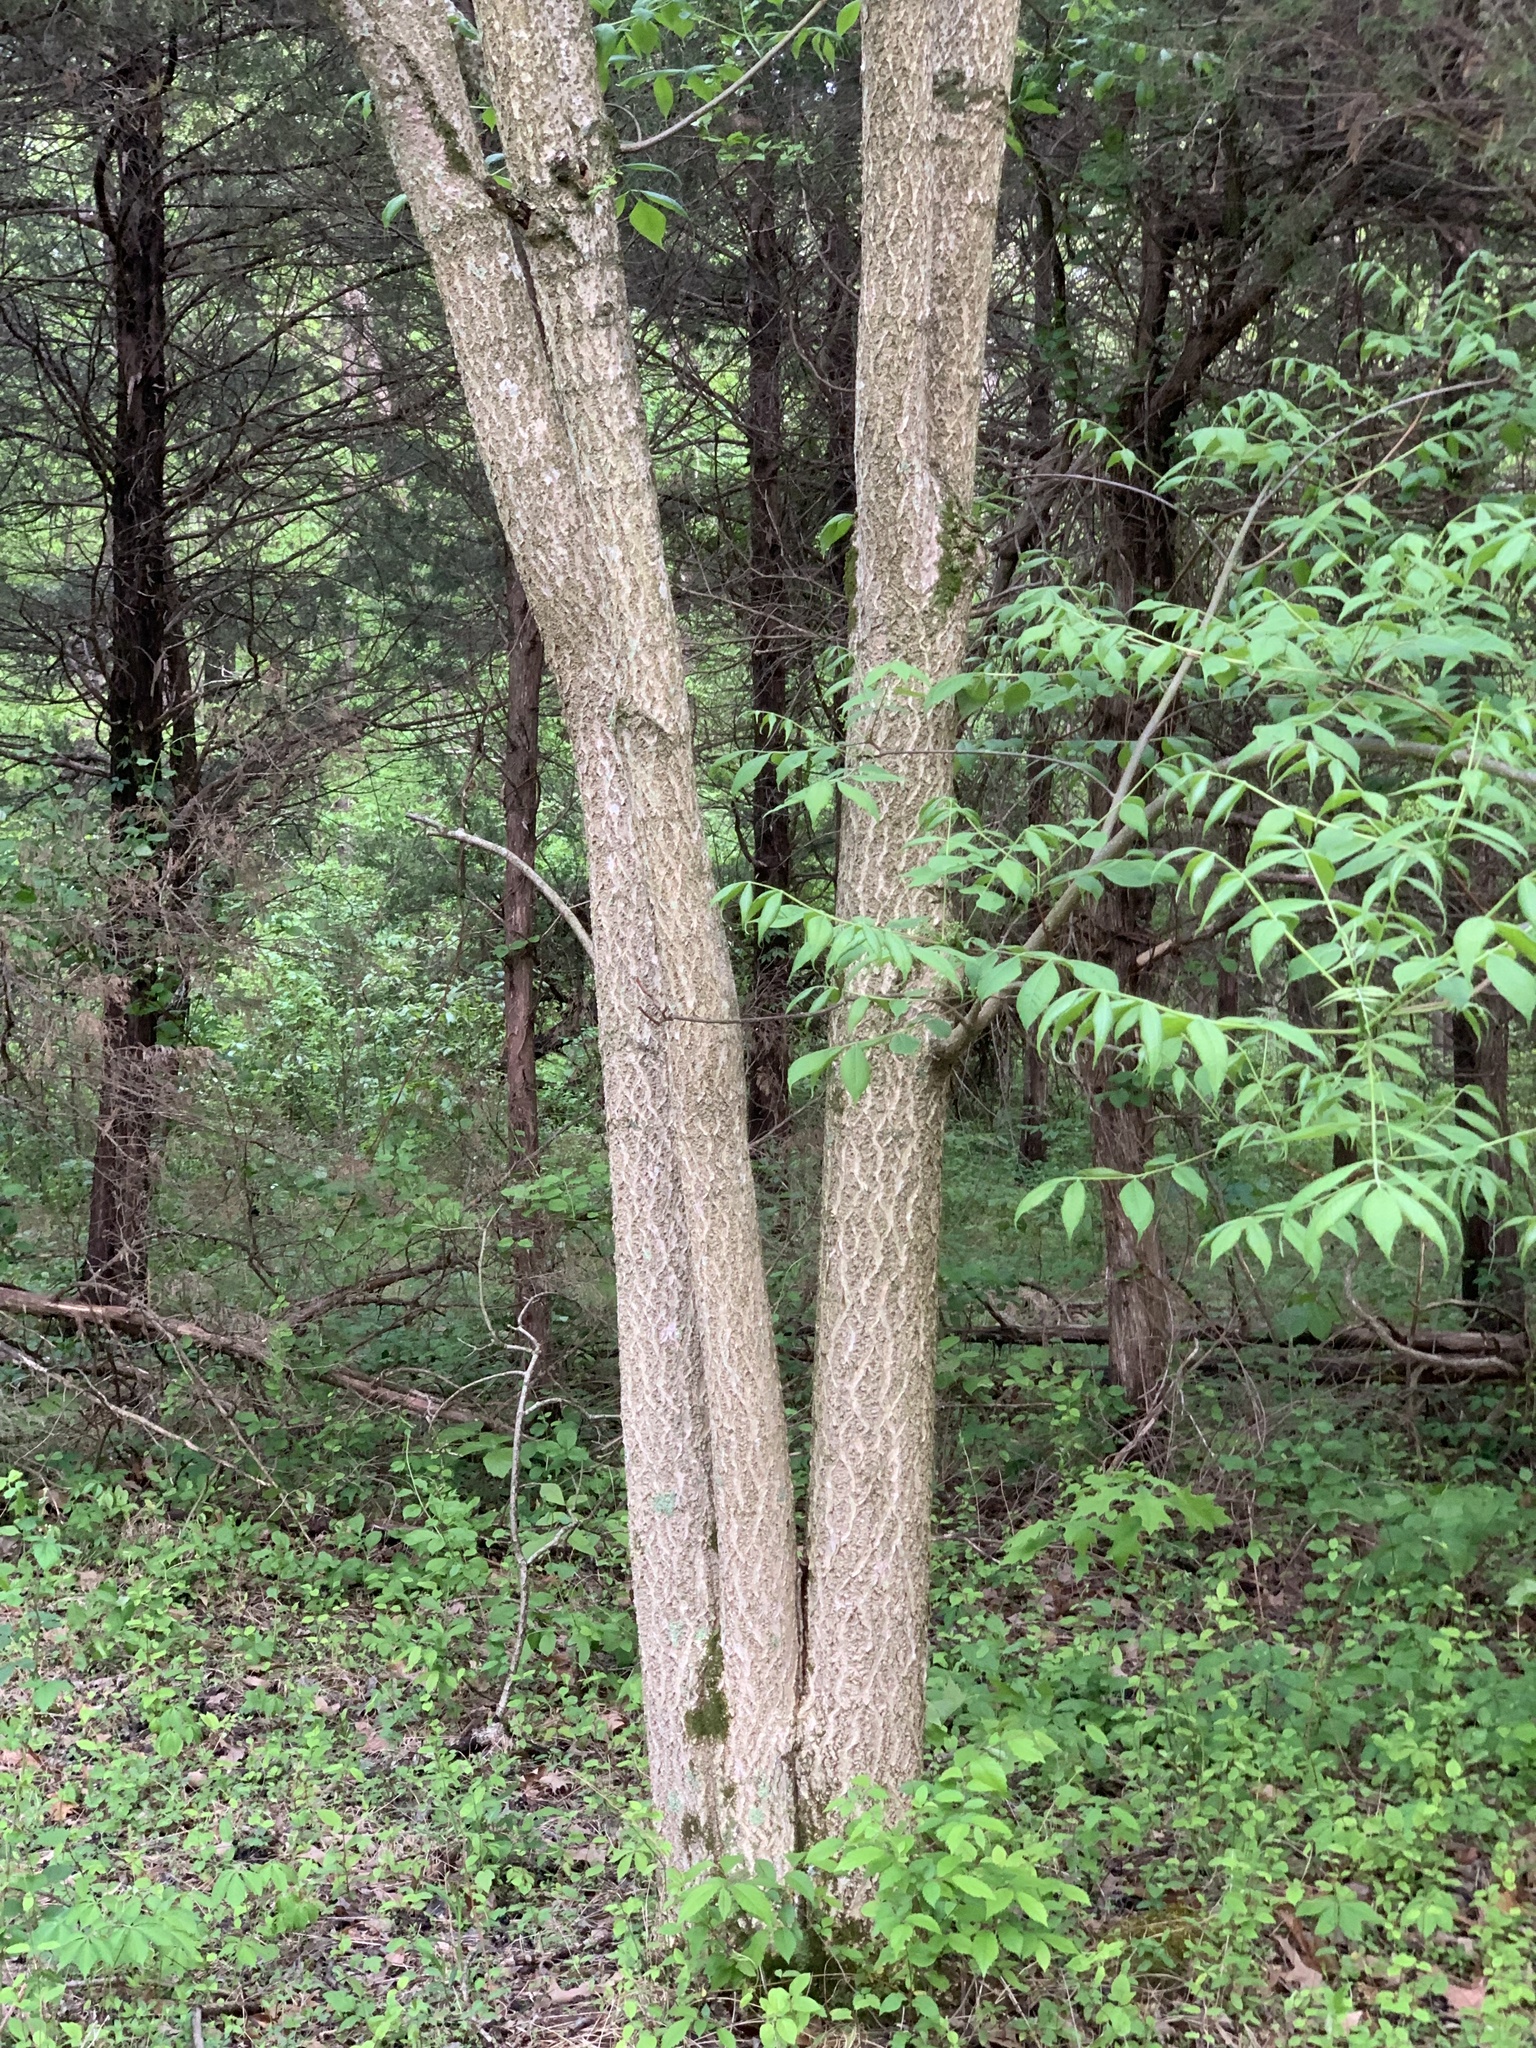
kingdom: Plantae
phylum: Tracheophyta
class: Magnoliopsida
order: Sapindales
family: Rutaceae
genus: Phellodendron
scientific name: Phellodendron amurense
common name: Amur corktree
